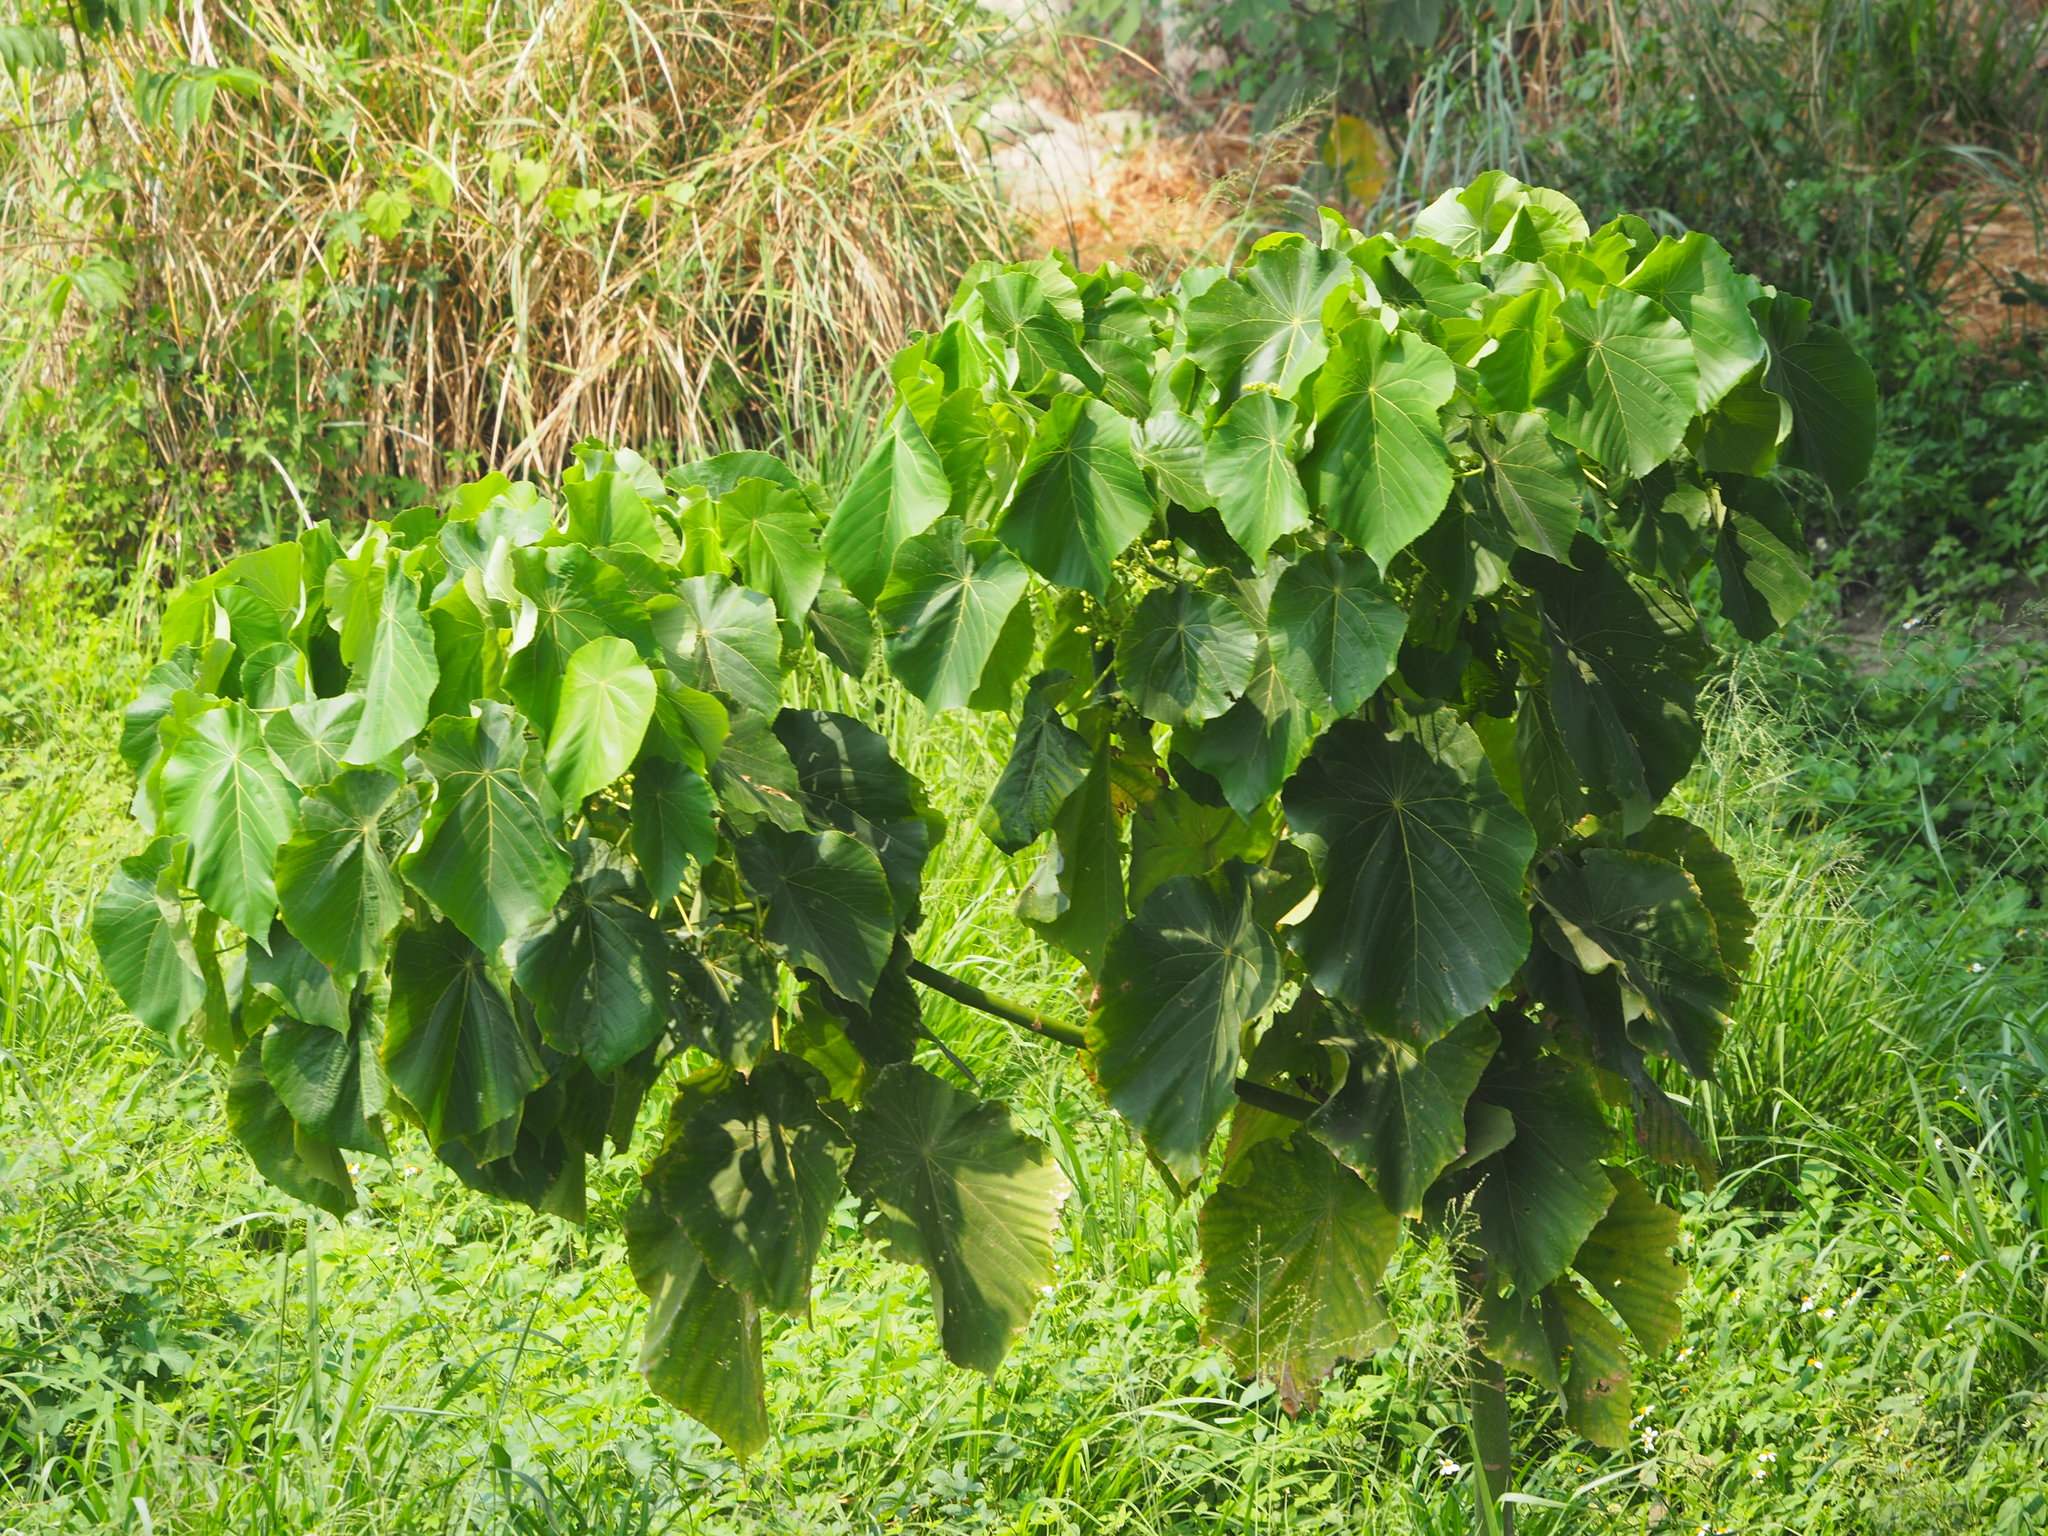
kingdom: Plantae
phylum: Tracheophyta
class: Magnoliopsida
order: Malpighiales
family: Euphorbiaceae
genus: Macaranga
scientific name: Macaranga tanarius
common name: Parasol leaf tree
